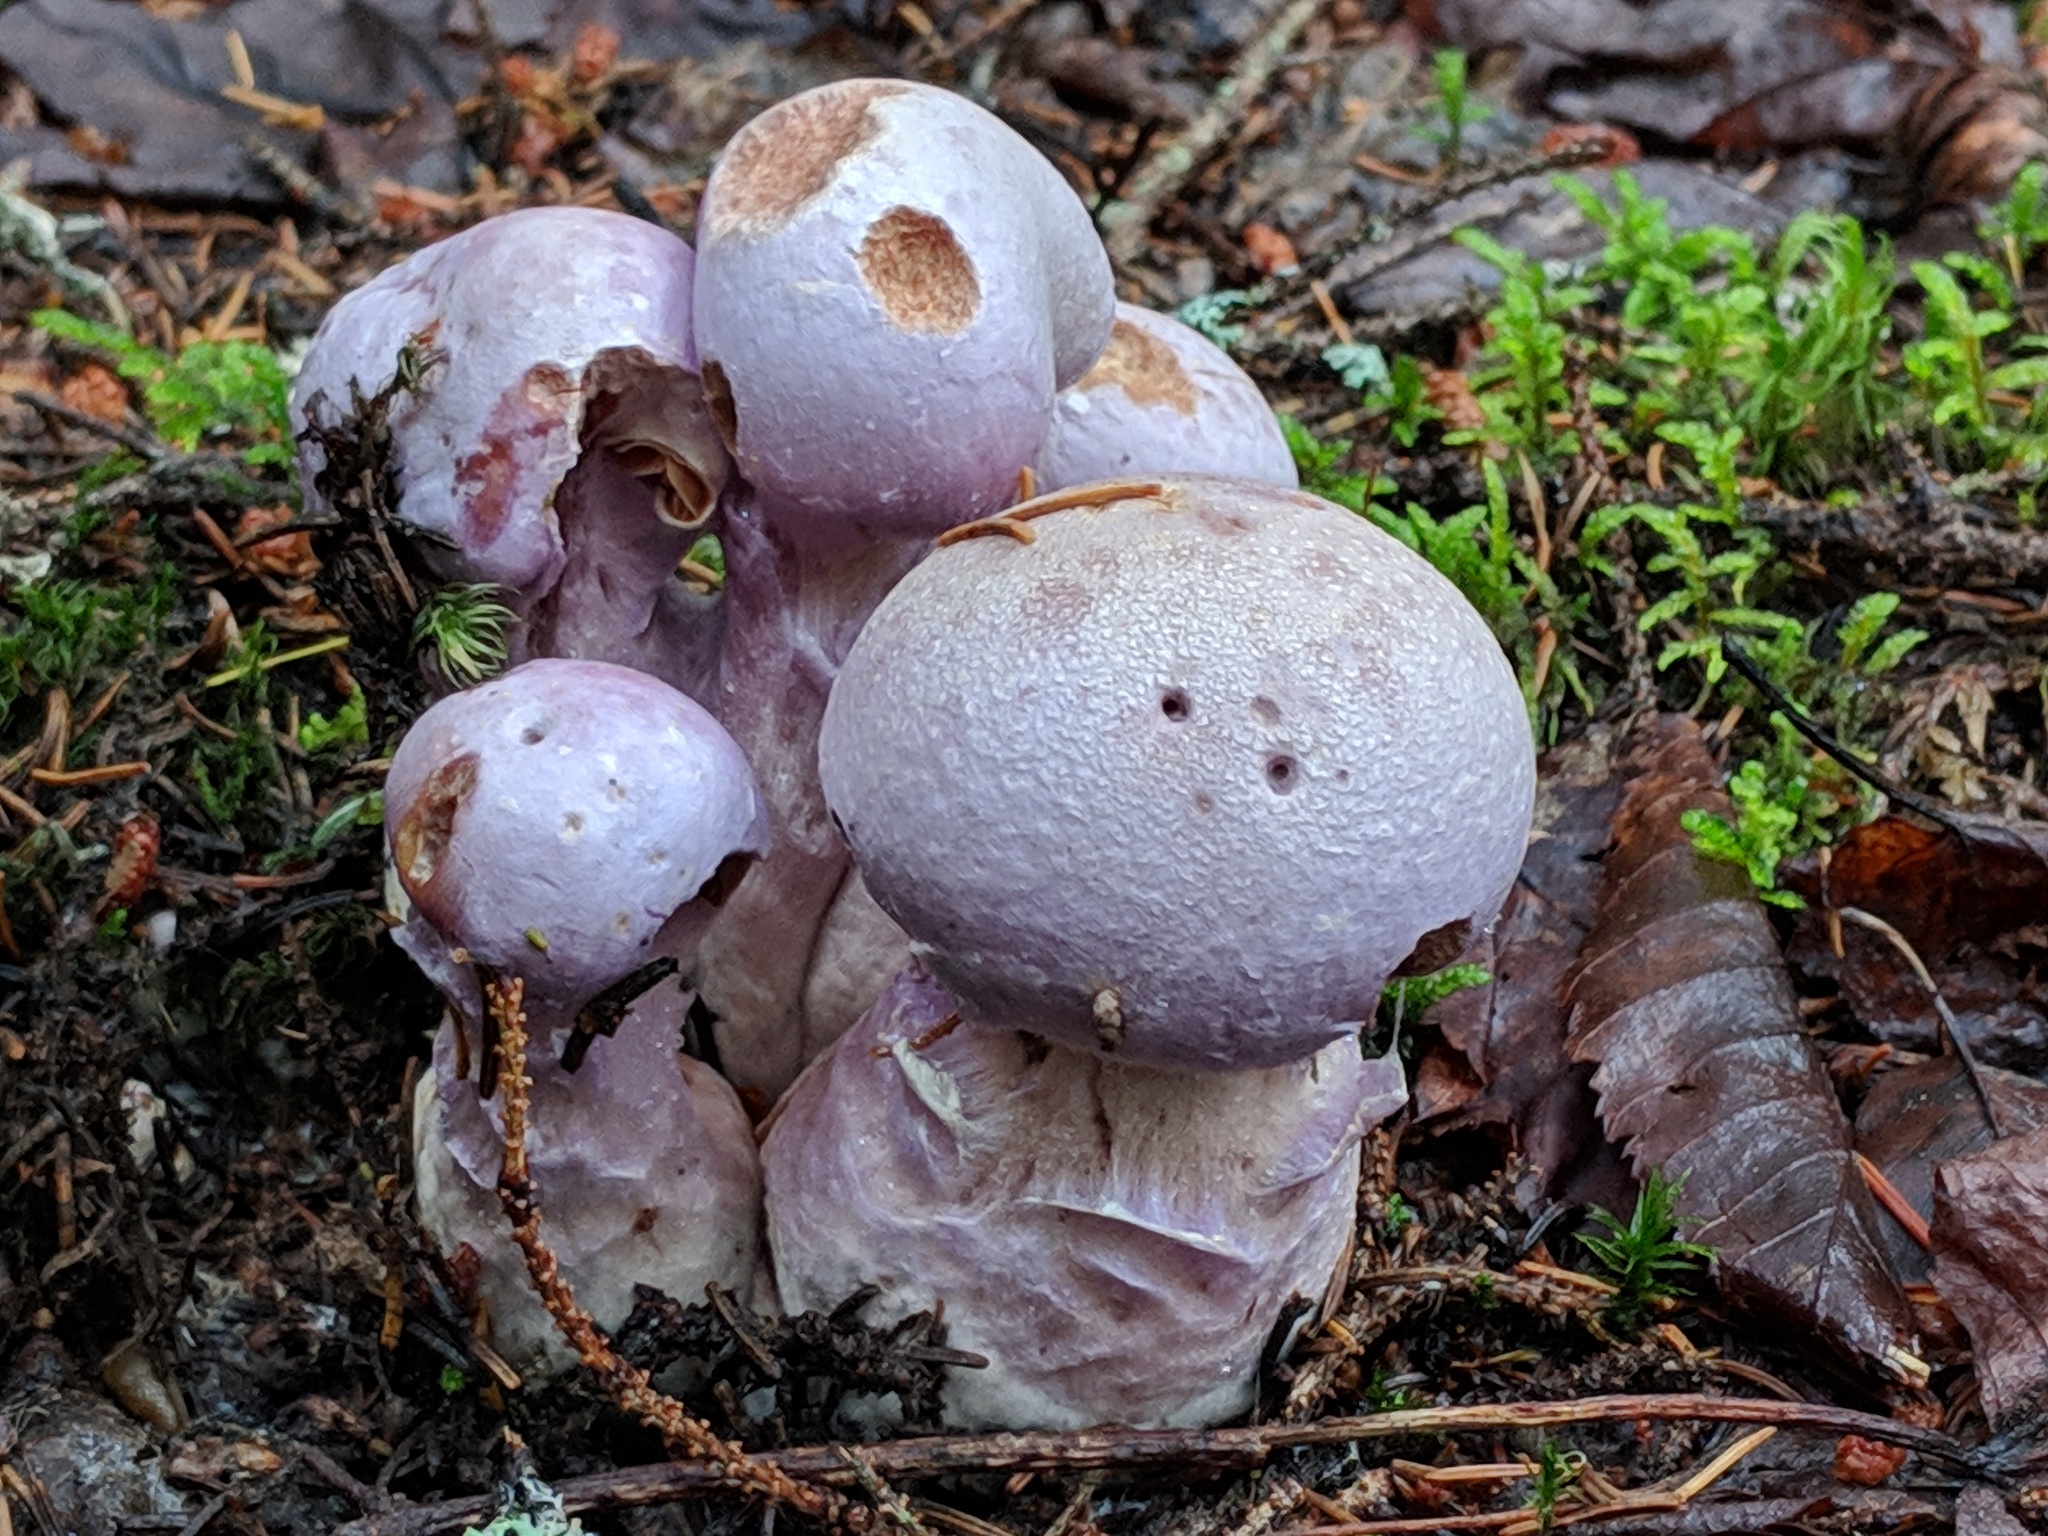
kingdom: Fungi
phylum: Basidiomycota
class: Agaricomycetes
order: Agaricales
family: Cortinariaceae
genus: Cortinarius
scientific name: Cortinarius traganus
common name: Gassy webcap
